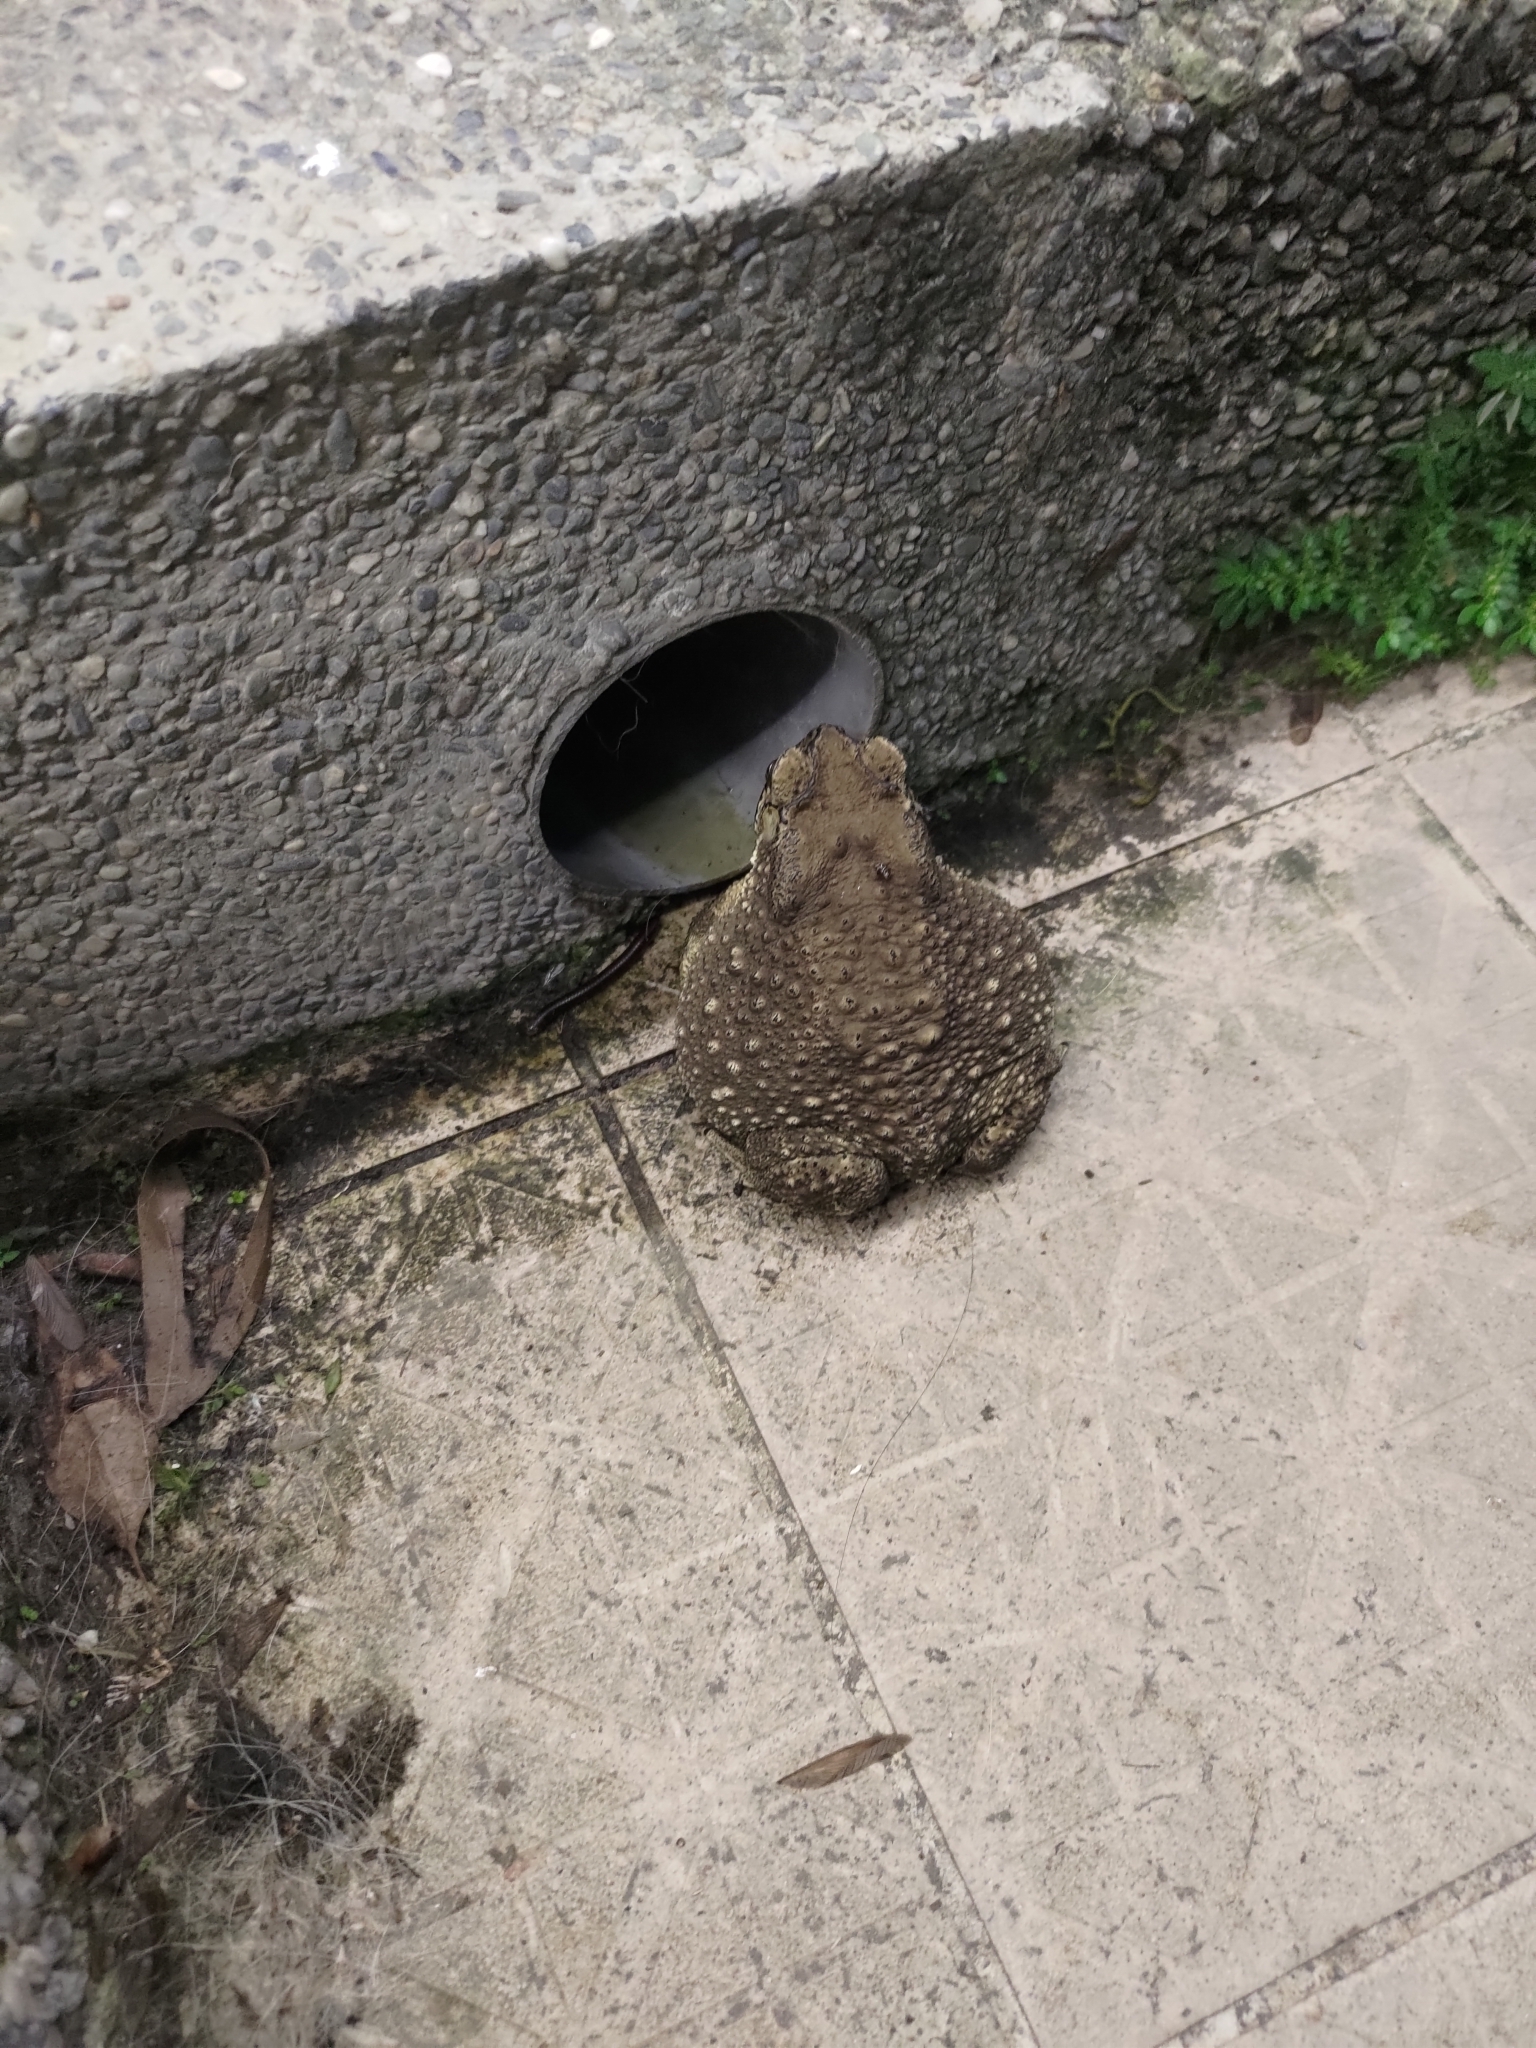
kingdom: Animalia
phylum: Chordata
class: Amphibia
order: Anura
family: Bufonidae
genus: Duttaphrynus
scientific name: Duttaphrynus melanostictus
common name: Common sunda toad
